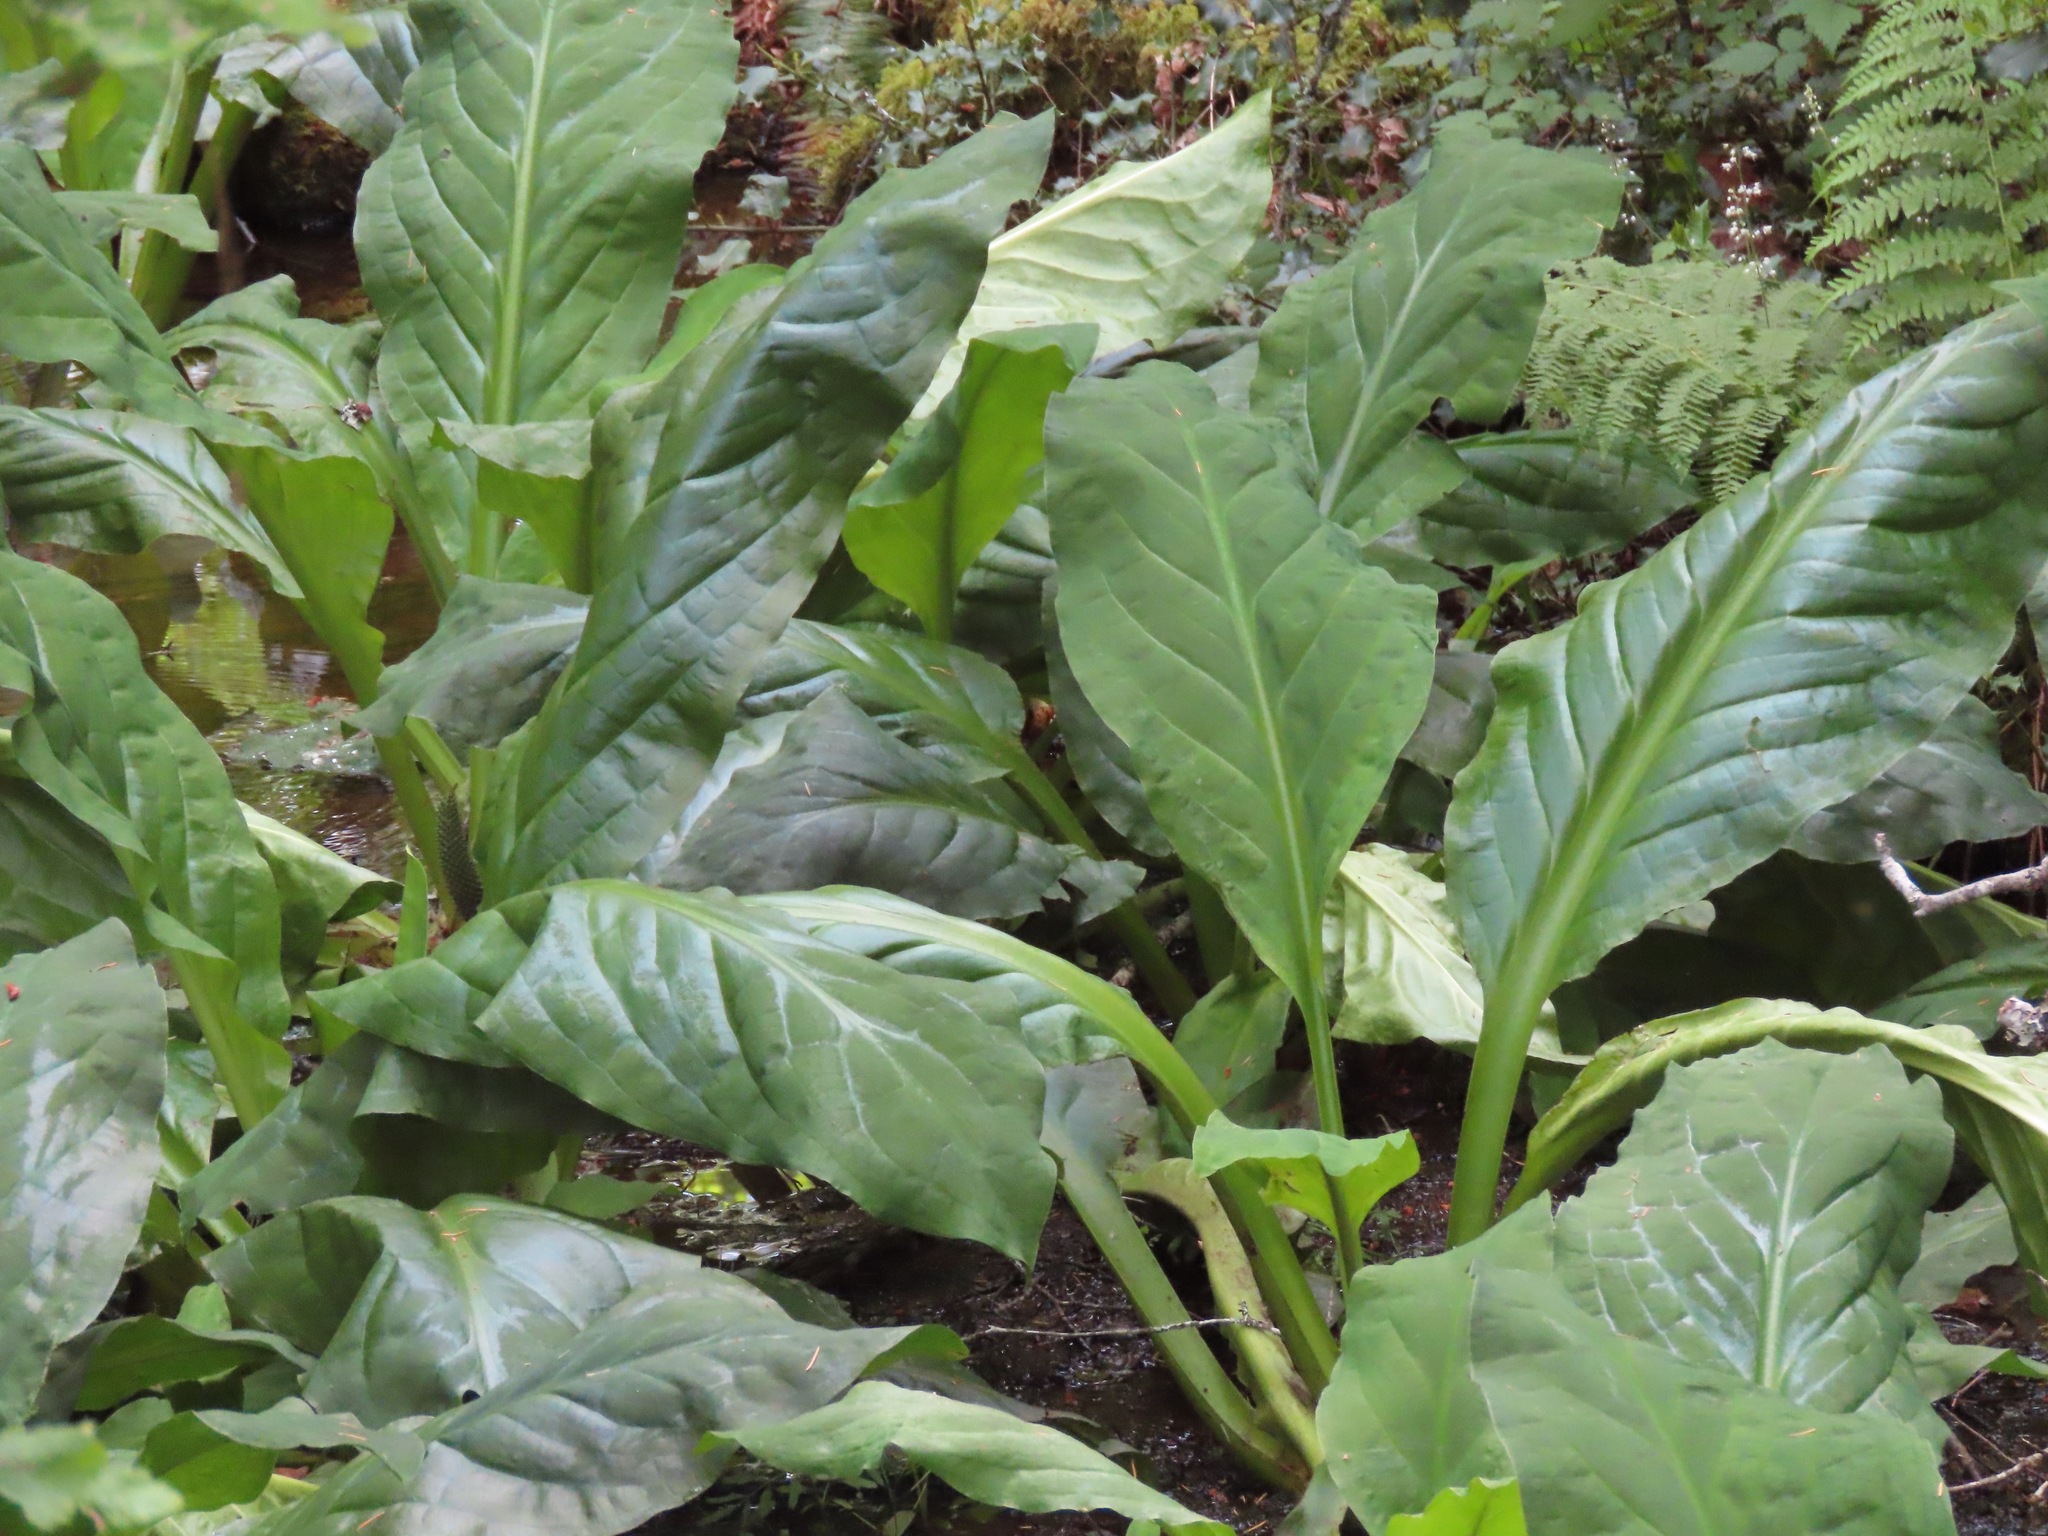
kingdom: Plantae
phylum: Tracheophyta
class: Liliopsida
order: Alismatales
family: Araceae
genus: Lysichiton
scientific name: Lysichiton americanus
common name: American skunk cabbage
